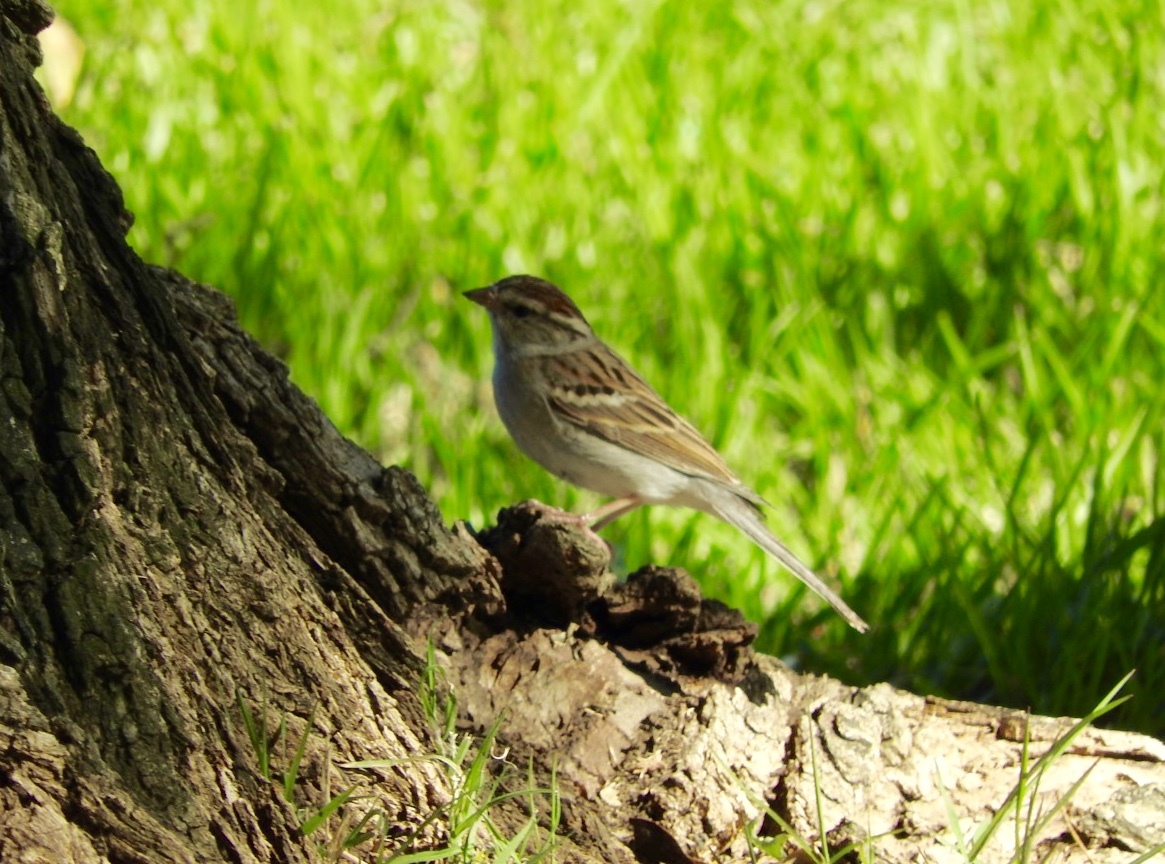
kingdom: Animalia
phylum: Chordata
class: Aves
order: Passeriformes
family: Passerellidae
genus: Spizella
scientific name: Spizella passerina
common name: Chipping sparrow
